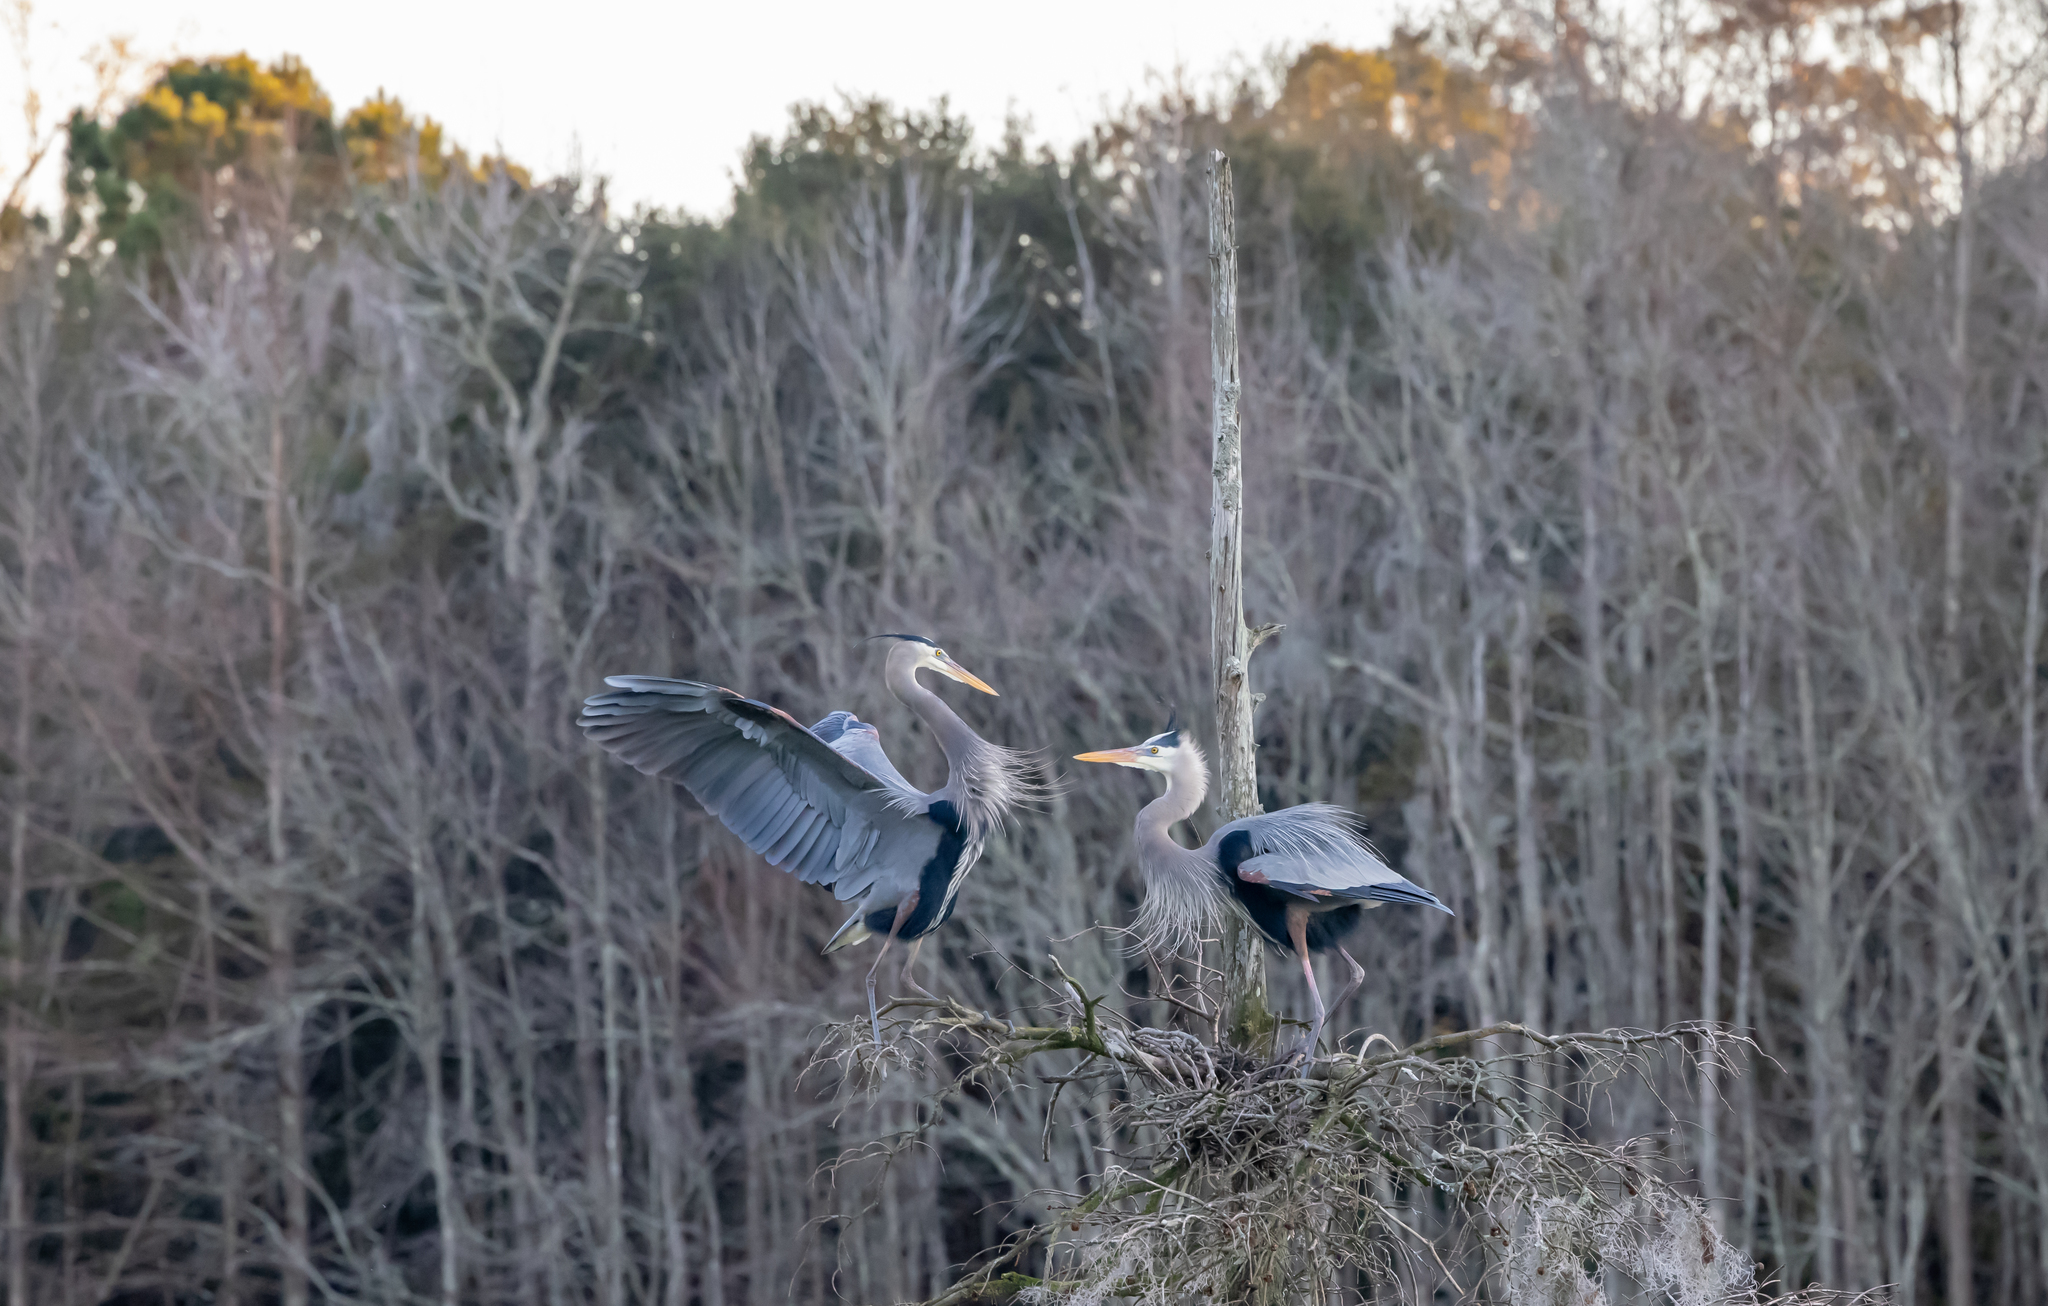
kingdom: Animalia
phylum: Chordata
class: Aves
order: Pelecaniformes
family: Ardeidae
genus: Ardea
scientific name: Ardea herodias
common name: Great blue heron
